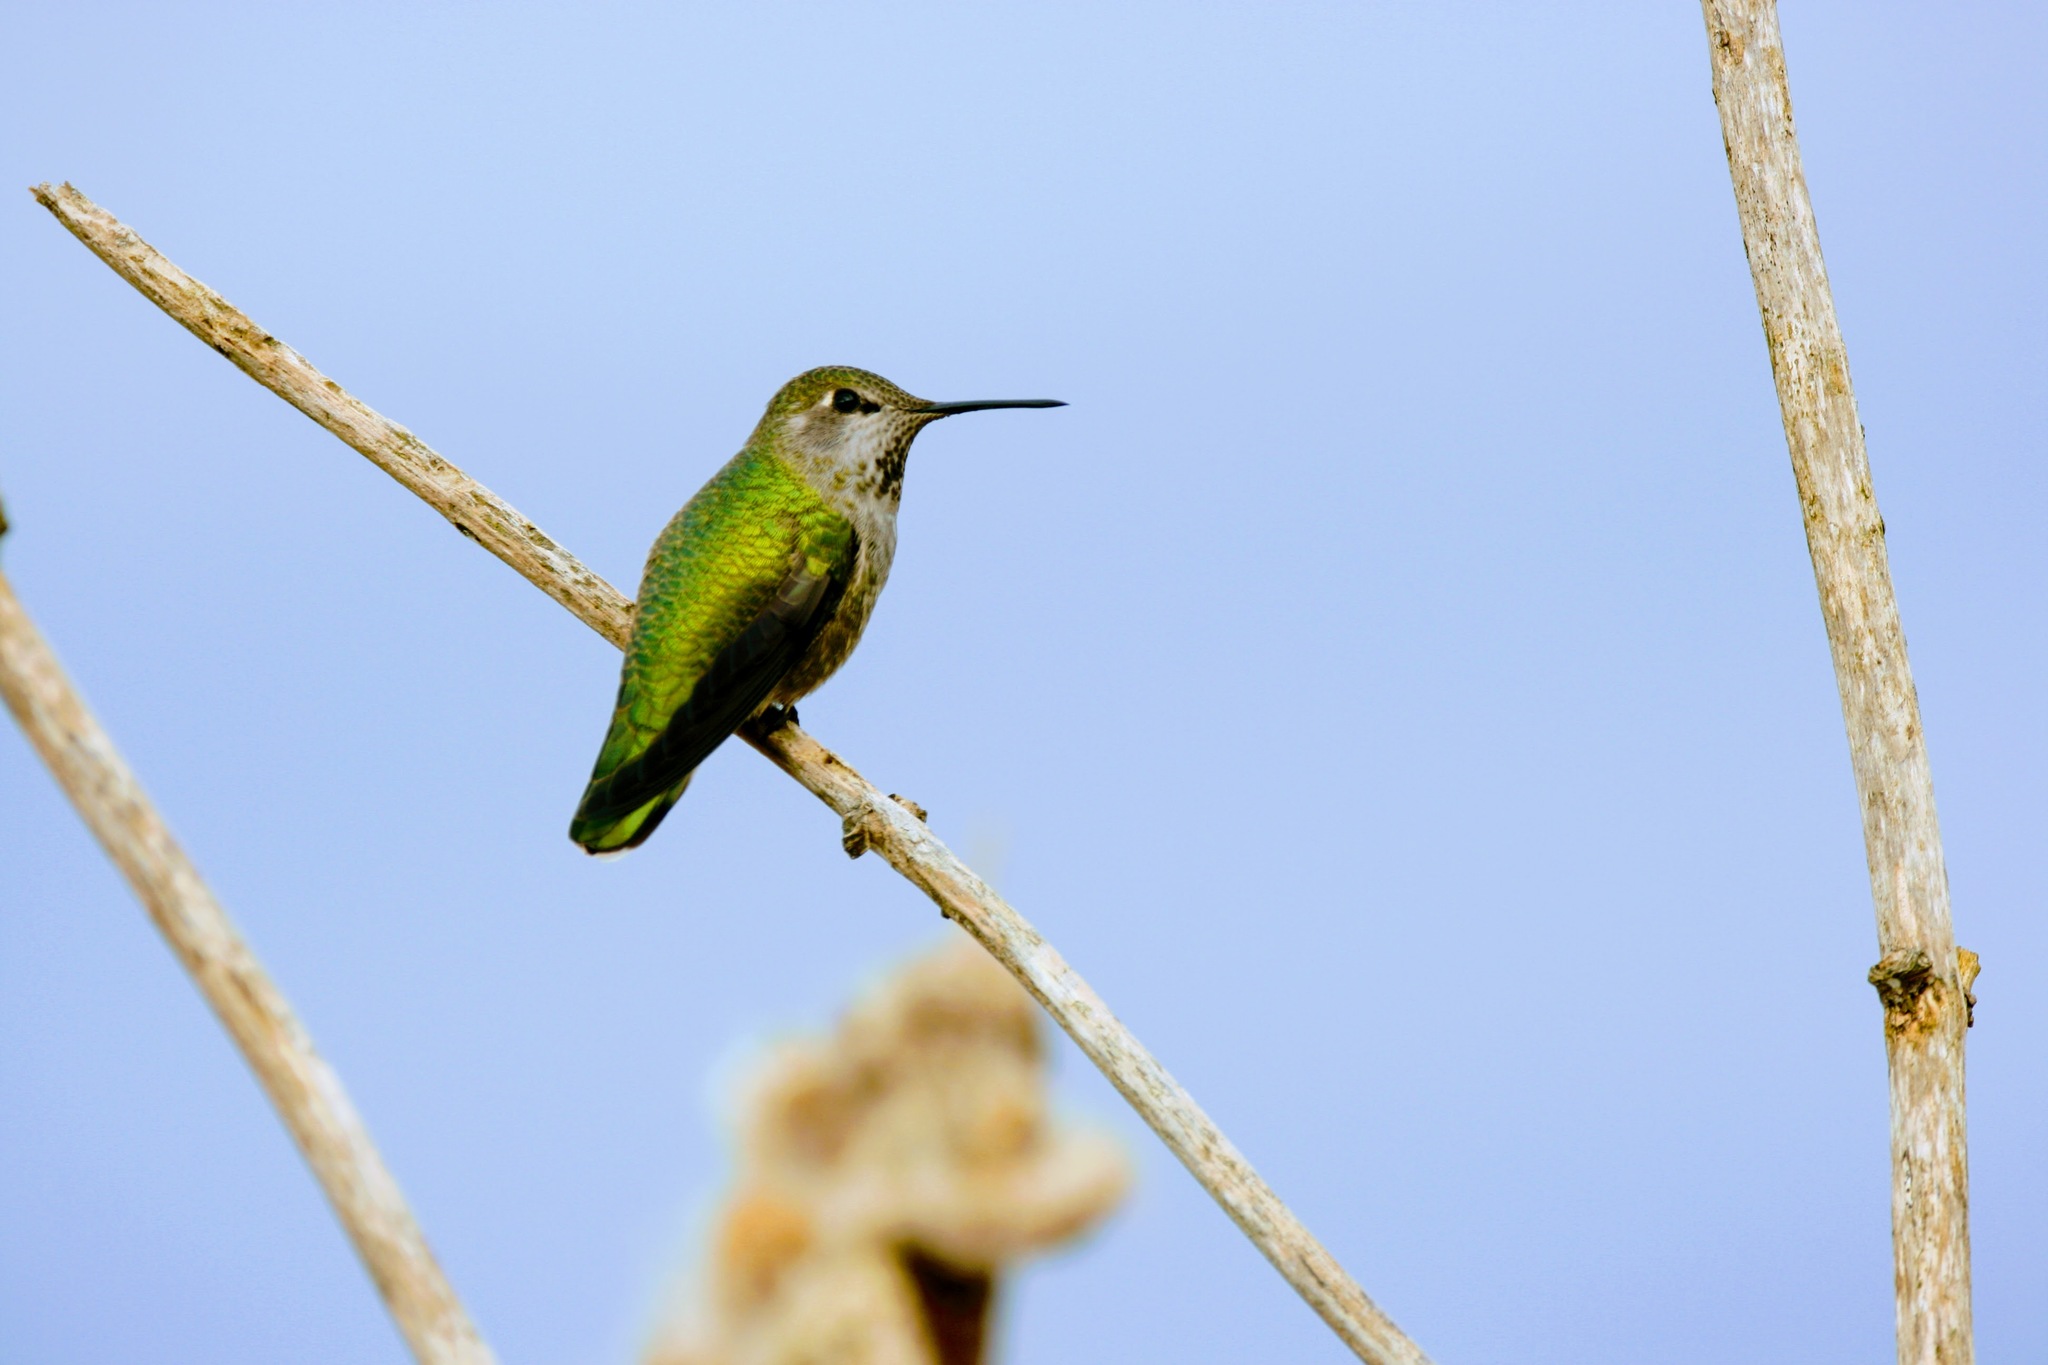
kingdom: Animalia
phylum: Chordata
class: Aves
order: Apodiformes
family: Trochilidae
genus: Calypte
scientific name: Calypte anna
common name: Anna's hummingbird
